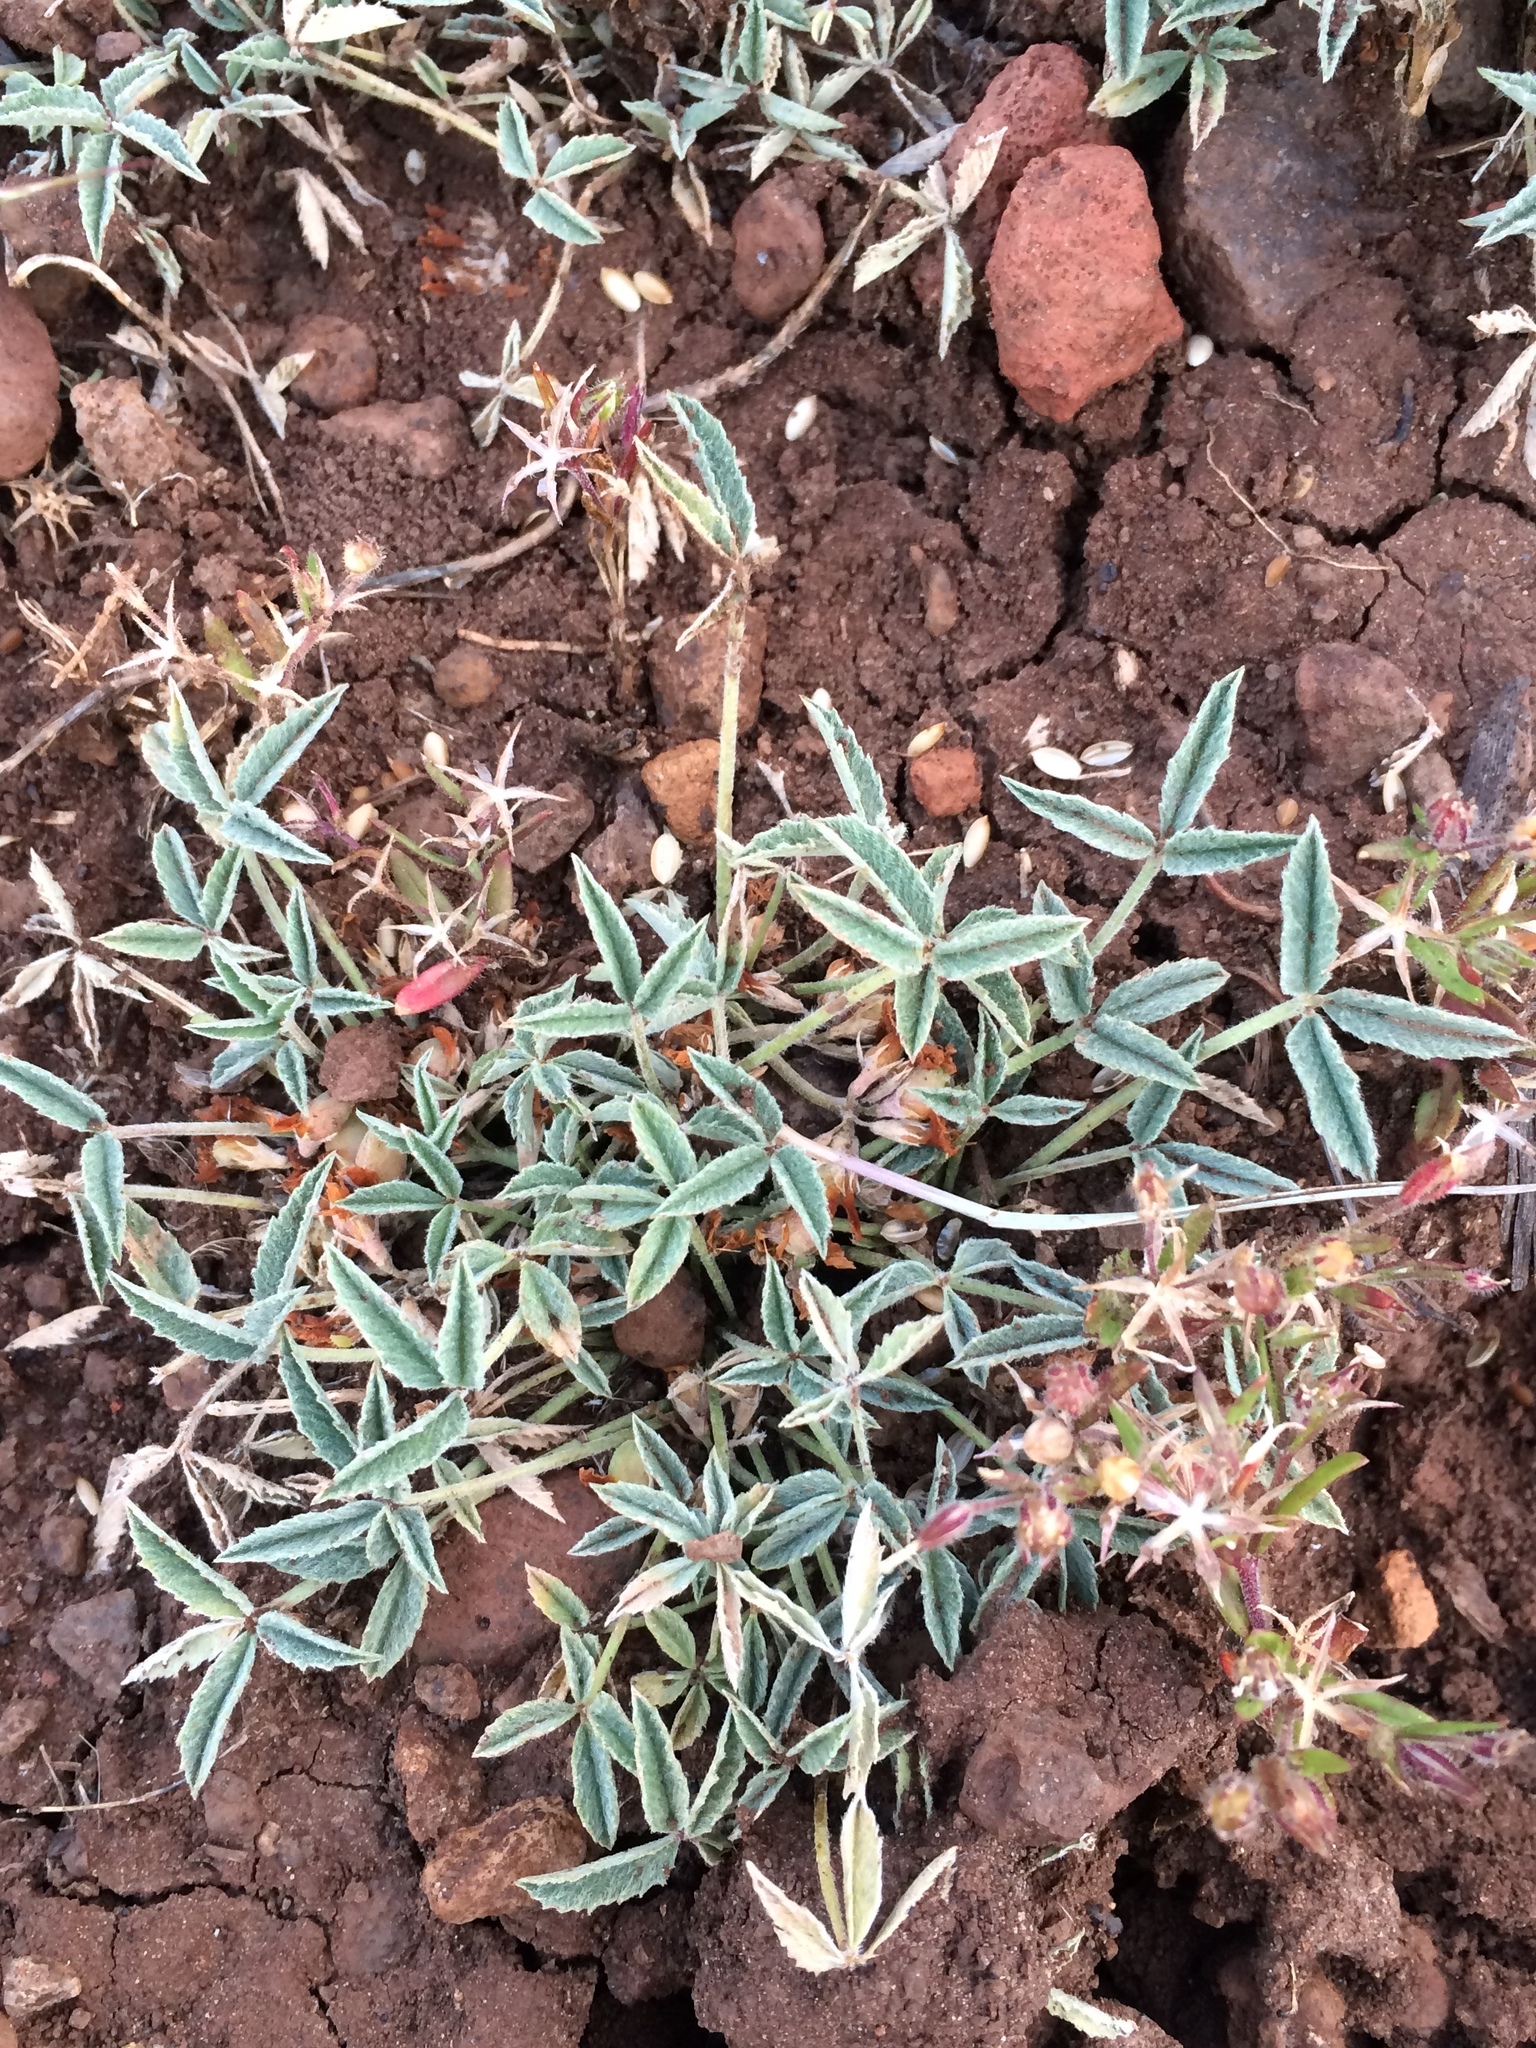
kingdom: Plantae
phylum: Tracheophyta
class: Magnoliopsida
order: Fabales
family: Fabaceae
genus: Trifolium
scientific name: Trifolium gymnocarpon
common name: Tufted clover
